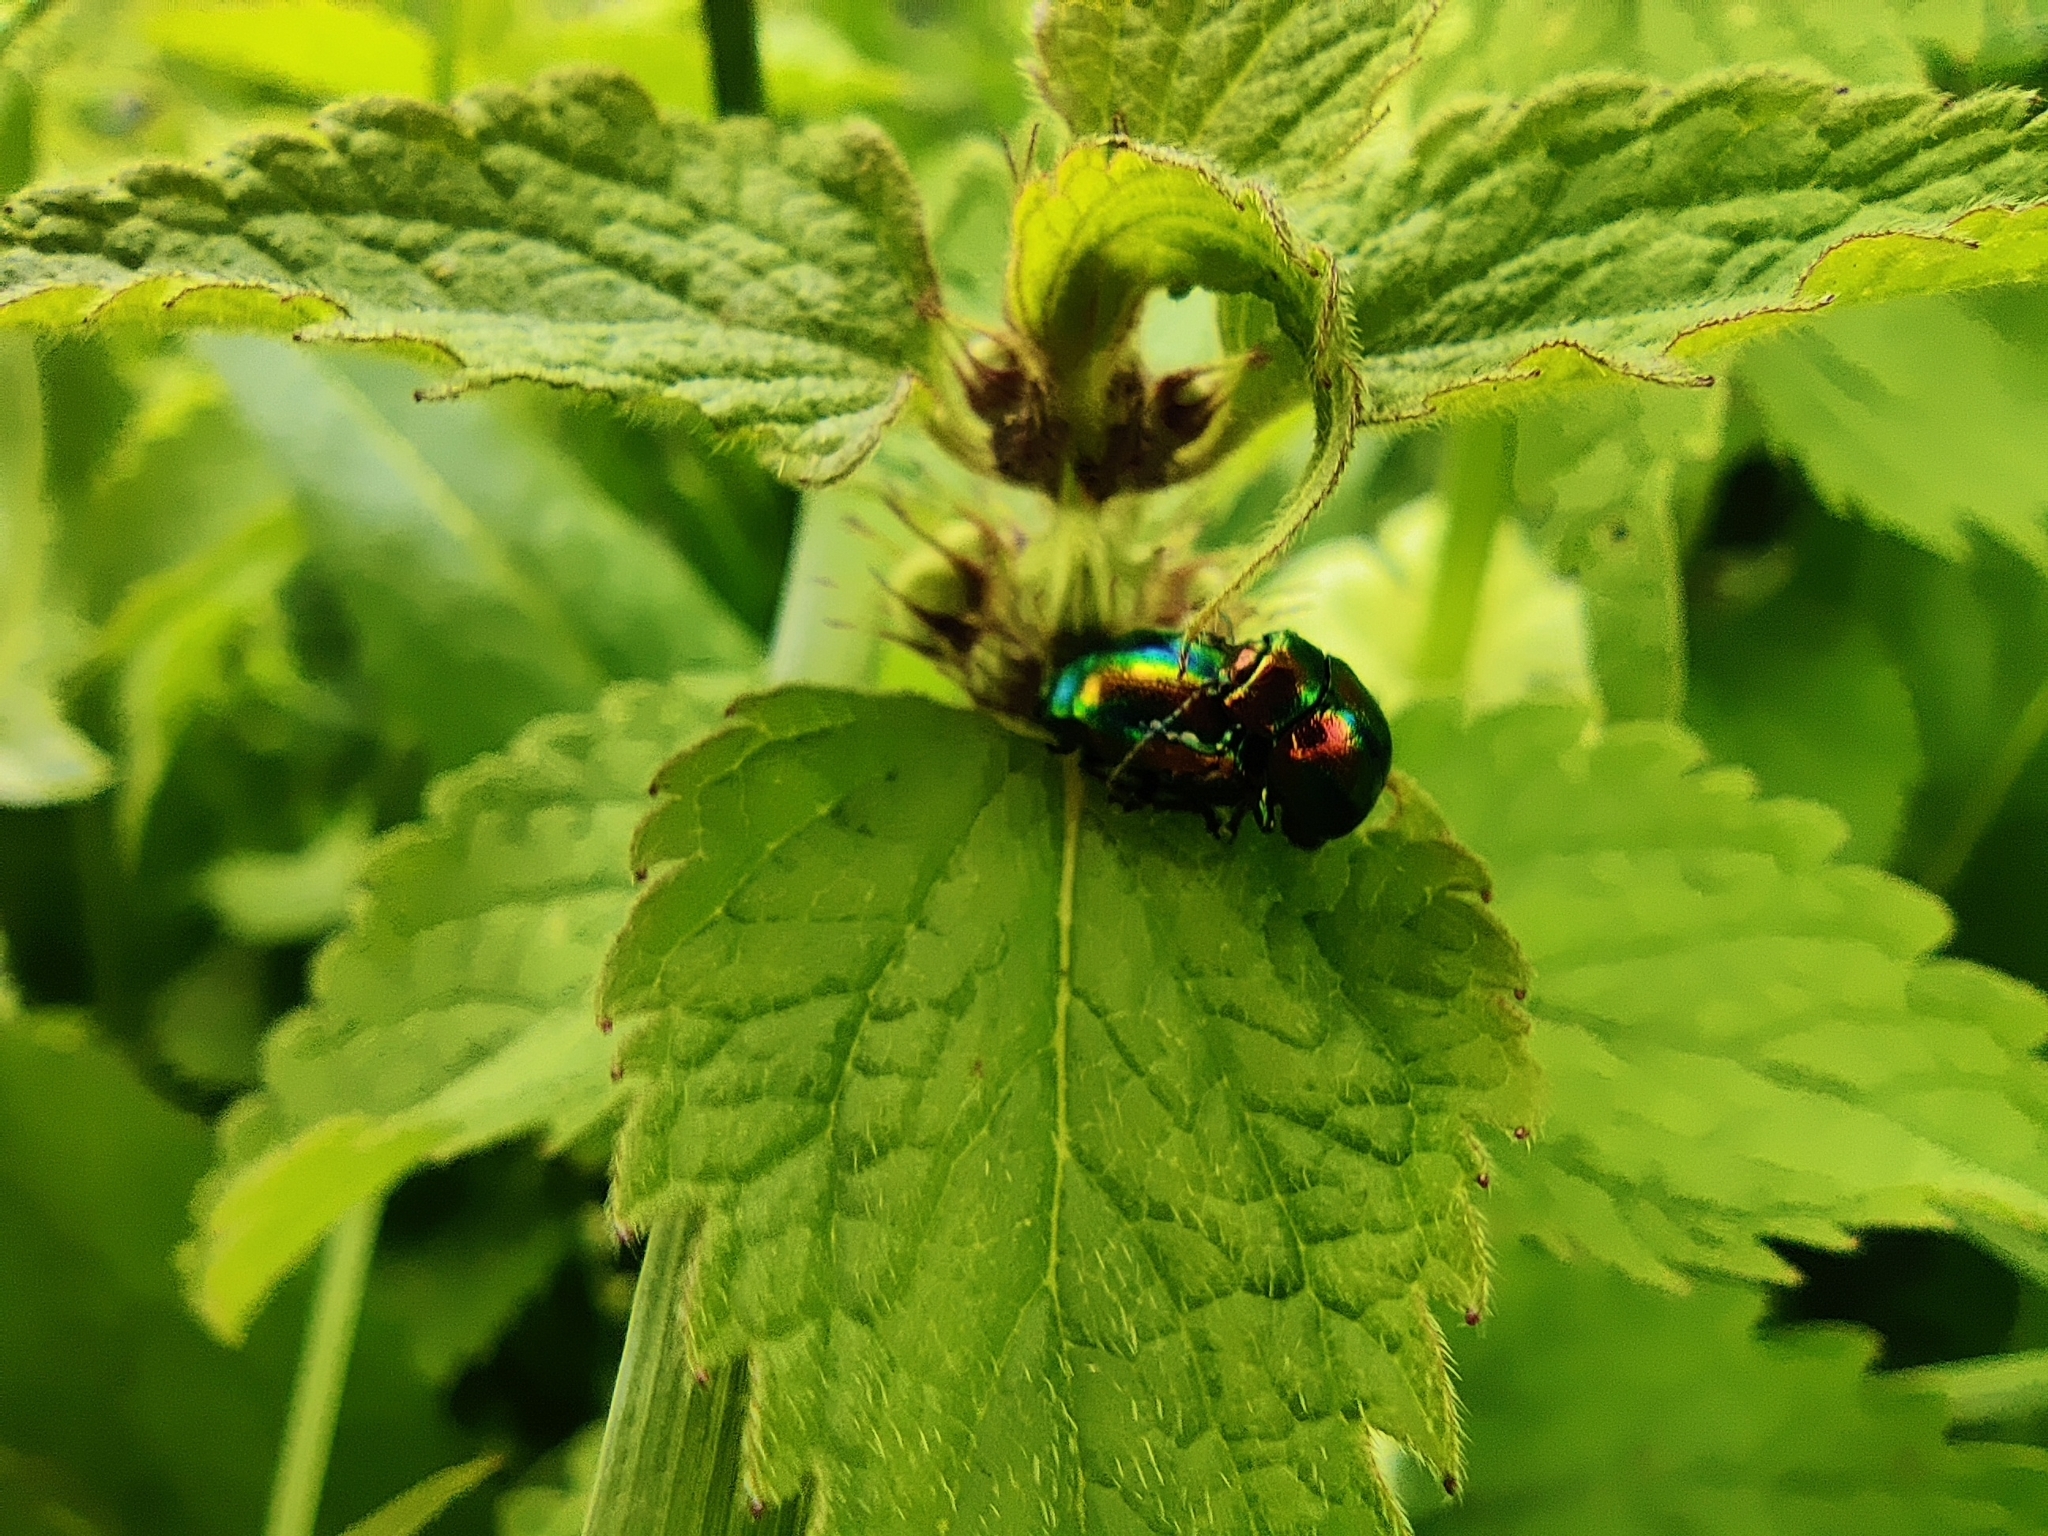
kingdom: Animalia
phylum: Arthropoda
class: Insecta
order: Coleoptera
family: Chrysomelidae
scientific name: Chrysomelidae
